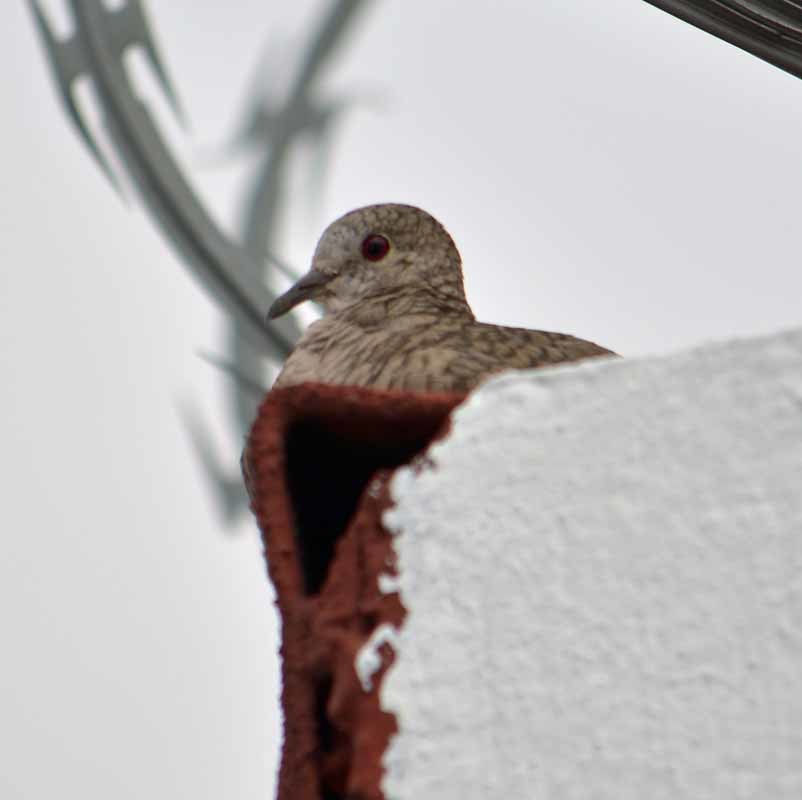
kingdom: Animalia
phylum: Chordata
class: Aves
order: Columbiformes
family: Columbidae
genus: Columbina
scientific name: Columbina inca
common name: Inca dove
